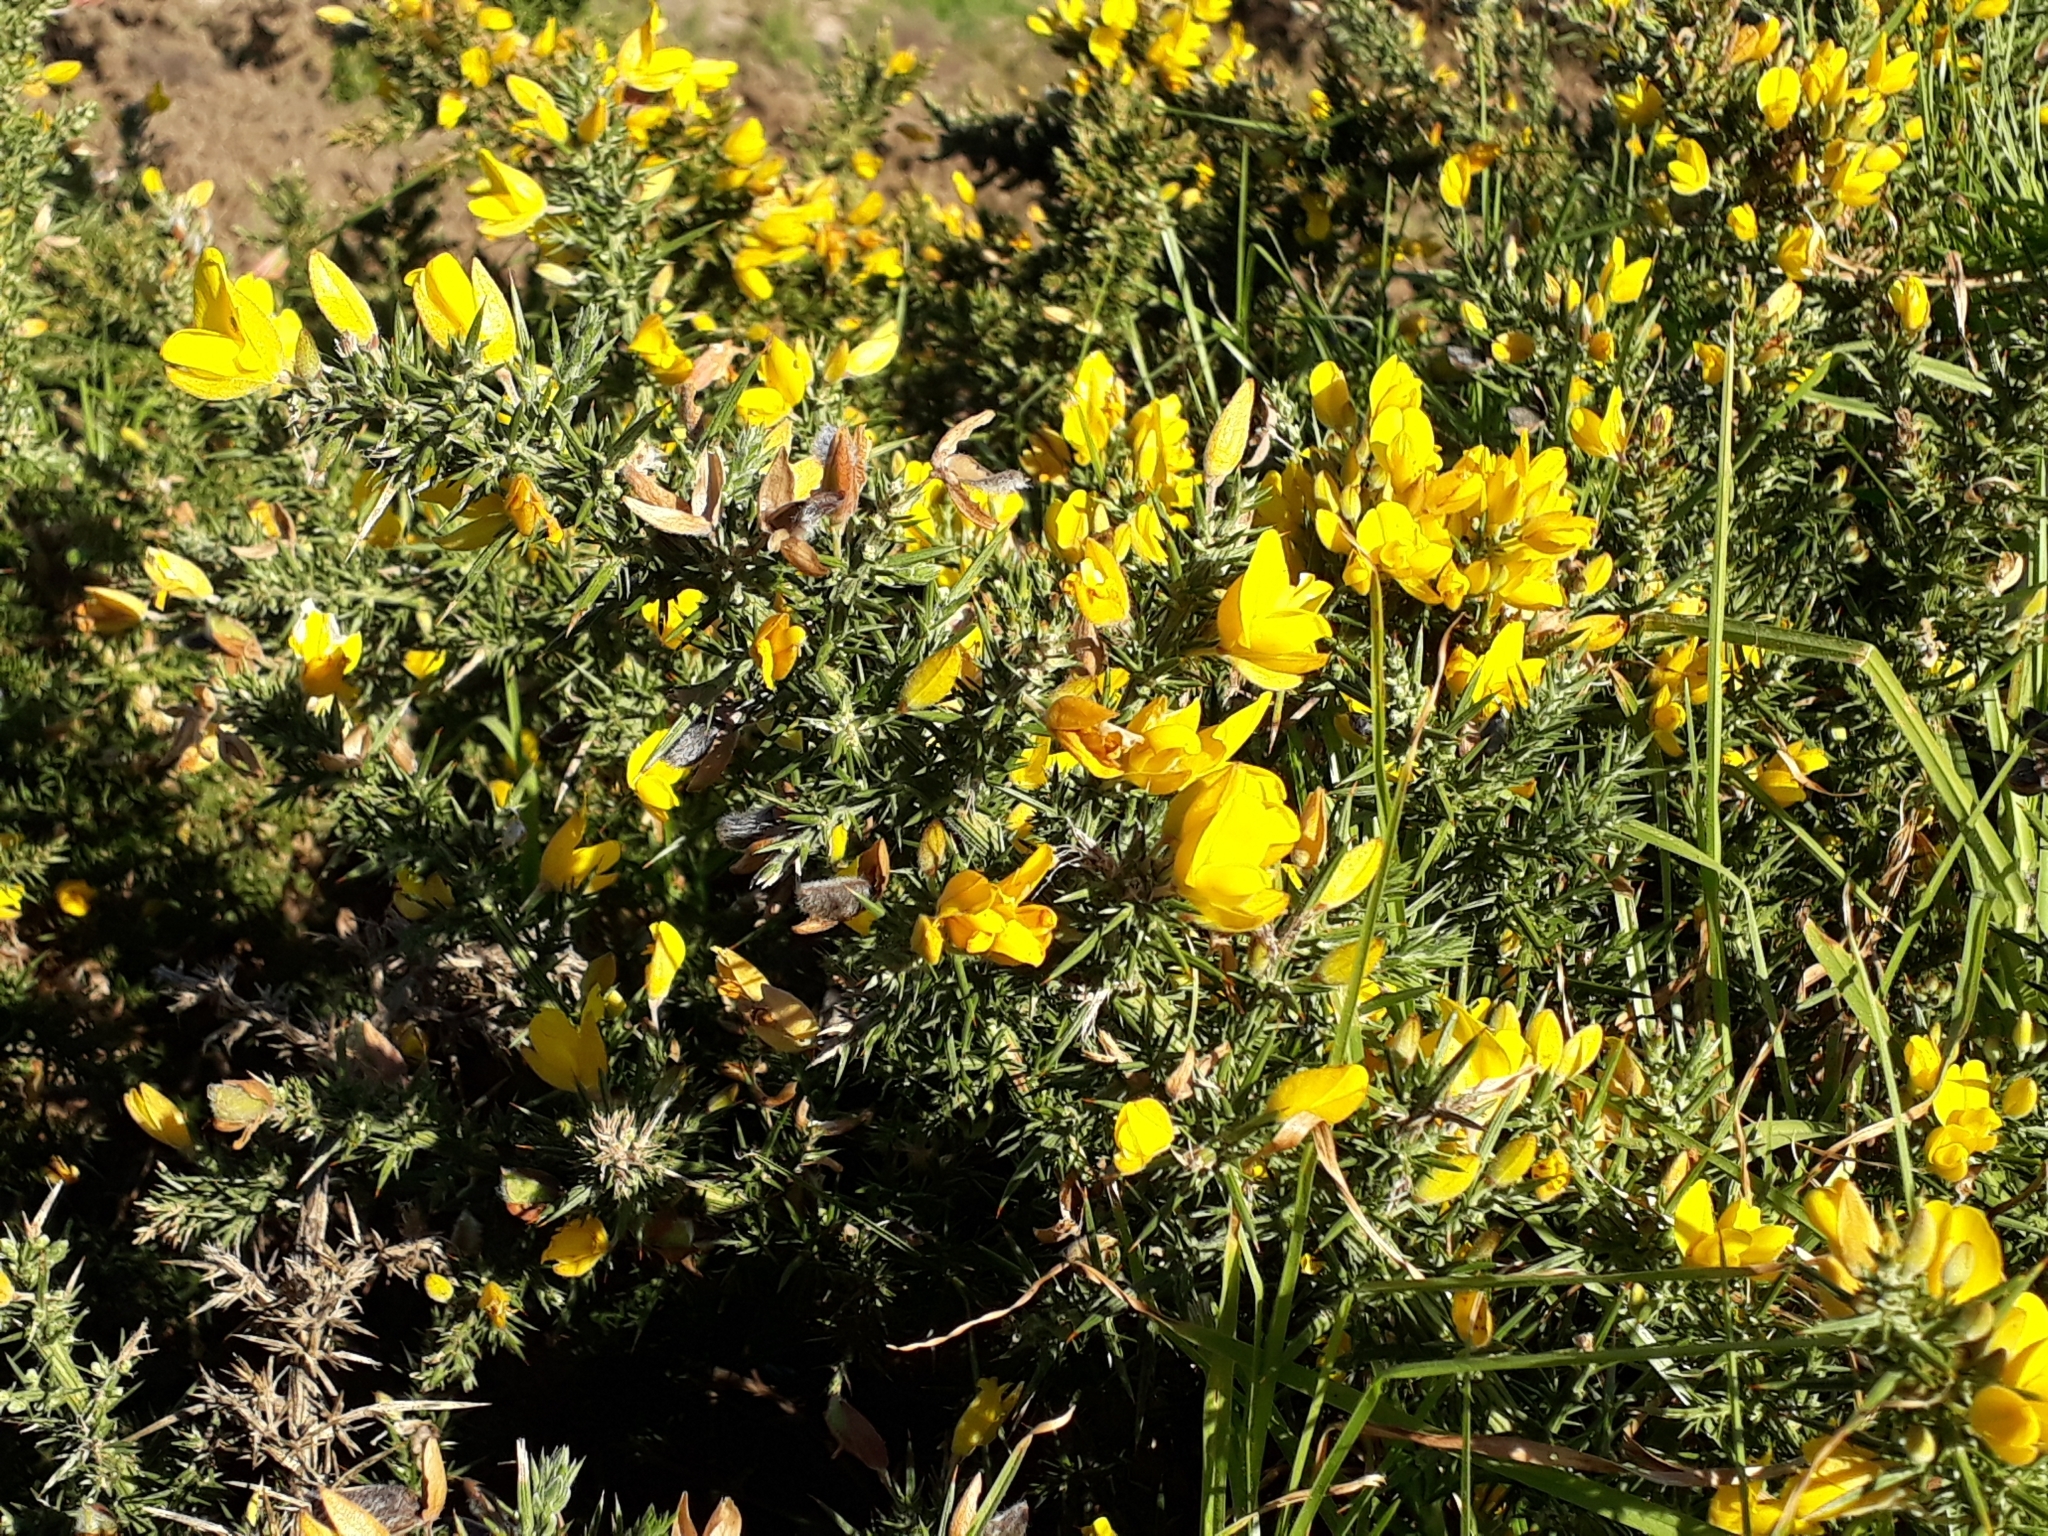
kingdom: Plantae
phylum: Tracheophyta
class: Magnoliopsida
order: Fabales
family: Fabaceae
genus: Ulex
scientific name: Ulex europaeus
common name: Common gorse
